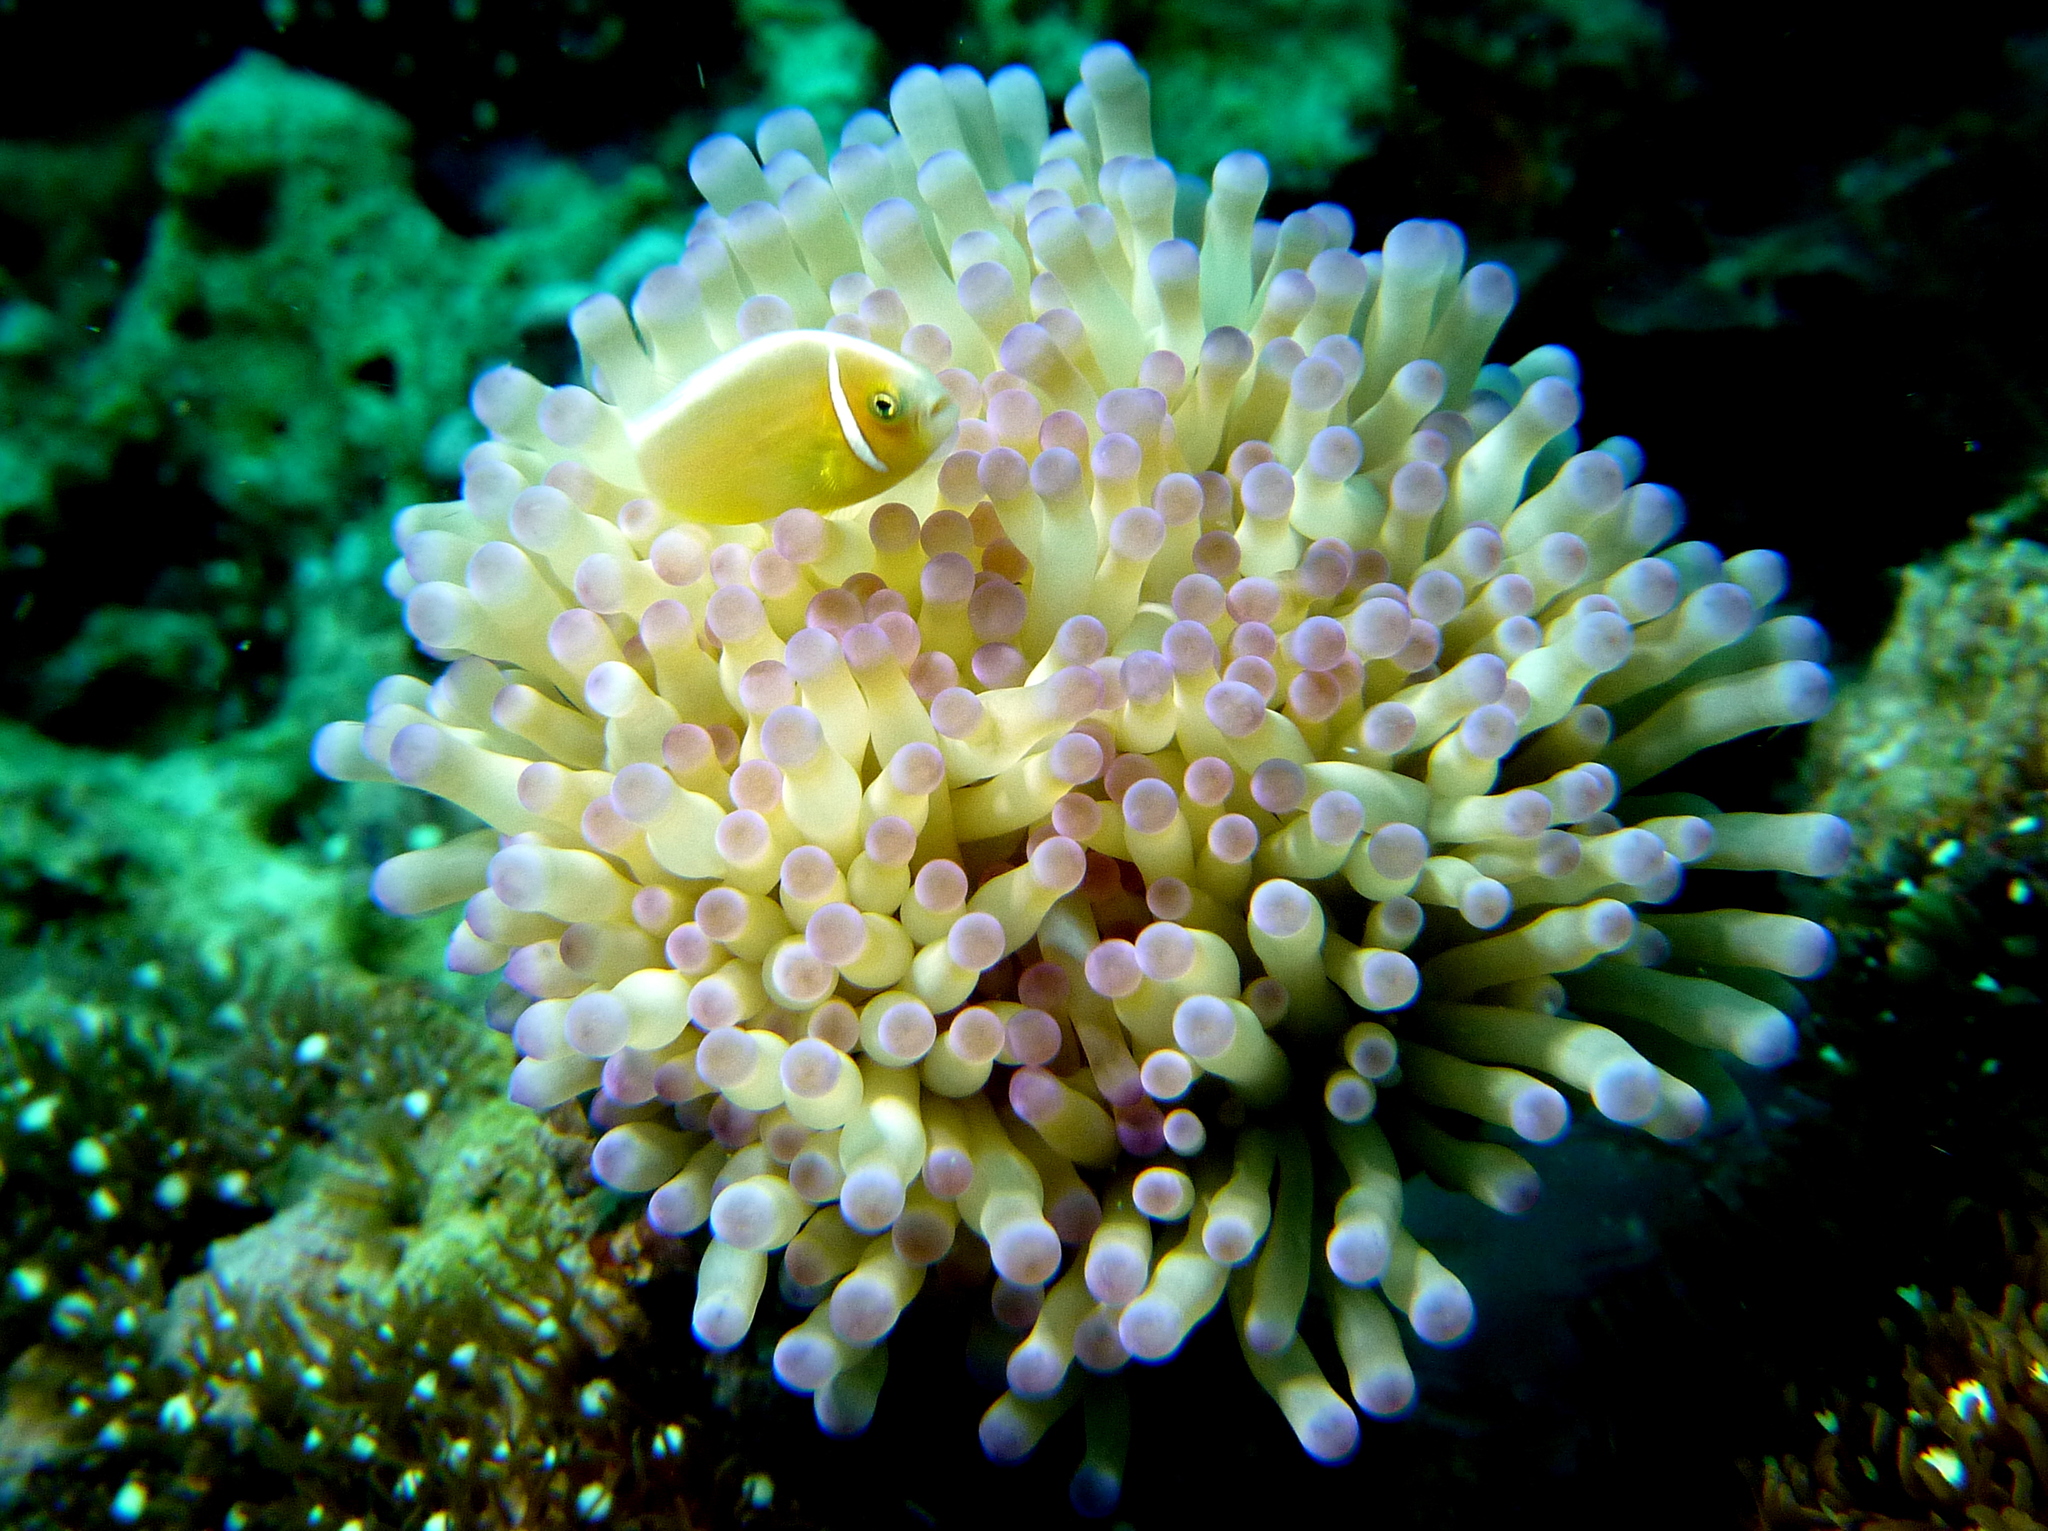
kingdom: Animalia
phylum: Chordata
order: Perciformes
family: Pomacentridae
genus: Amphiprion
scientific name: Amphiprion perideraion
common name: Pink anemonefish
